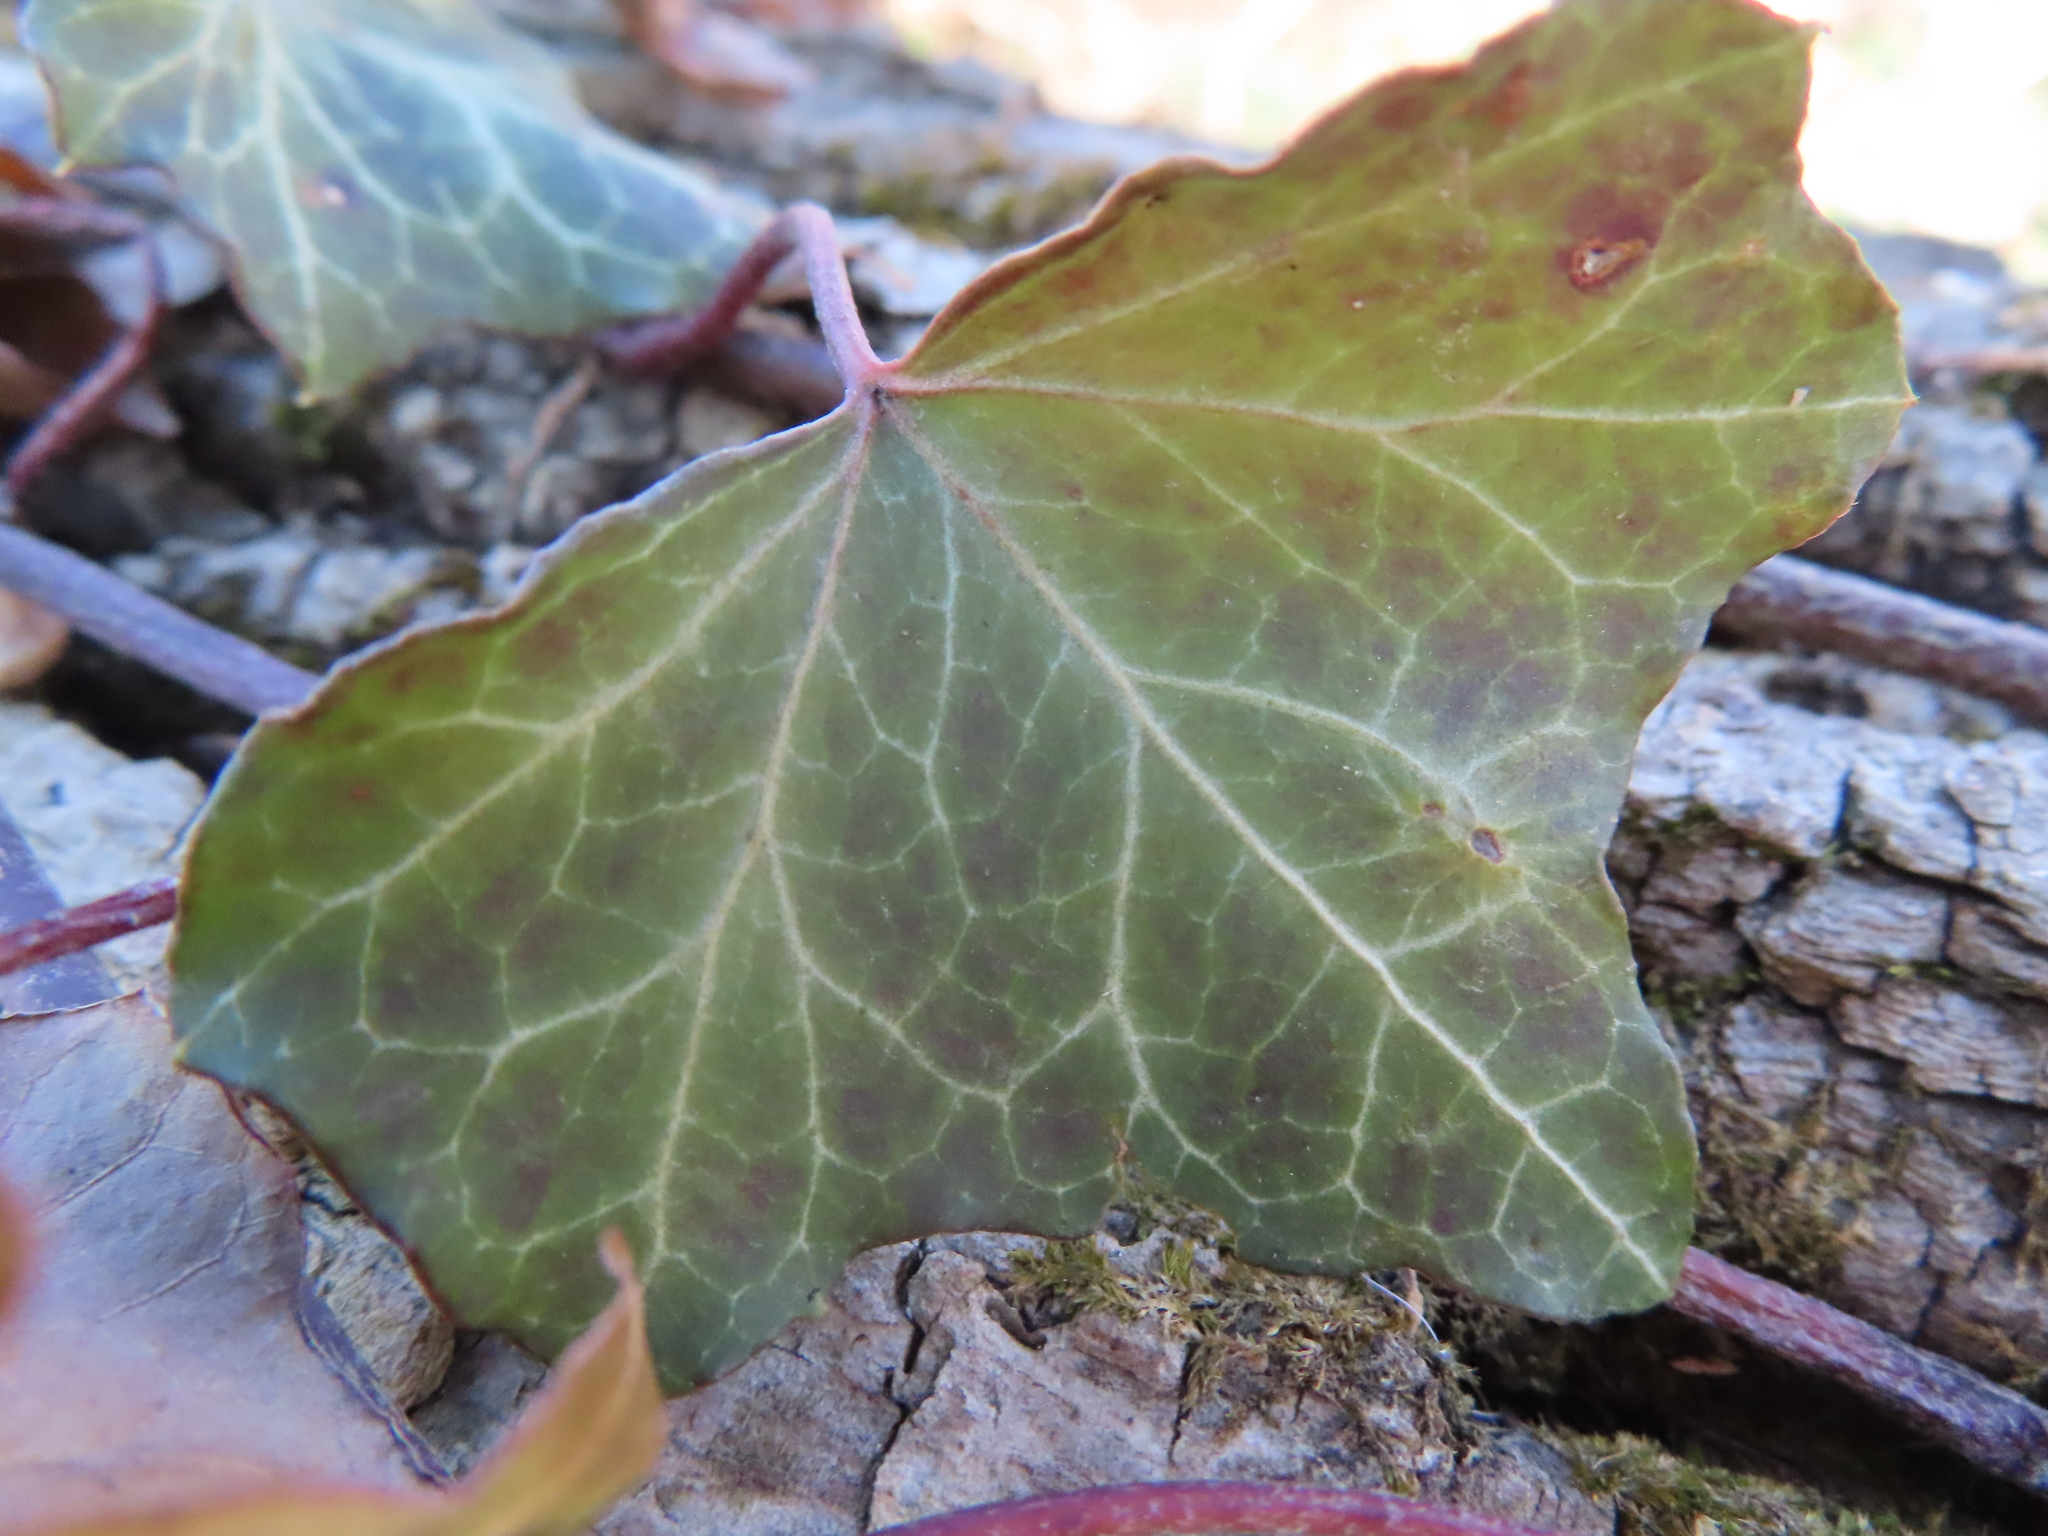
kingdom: Plantae
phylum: Tracheophyta
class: Magnoliopsida
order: Apiales
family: Araliaceae
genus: Hedera
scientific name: Hedera helix
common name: Ivy
